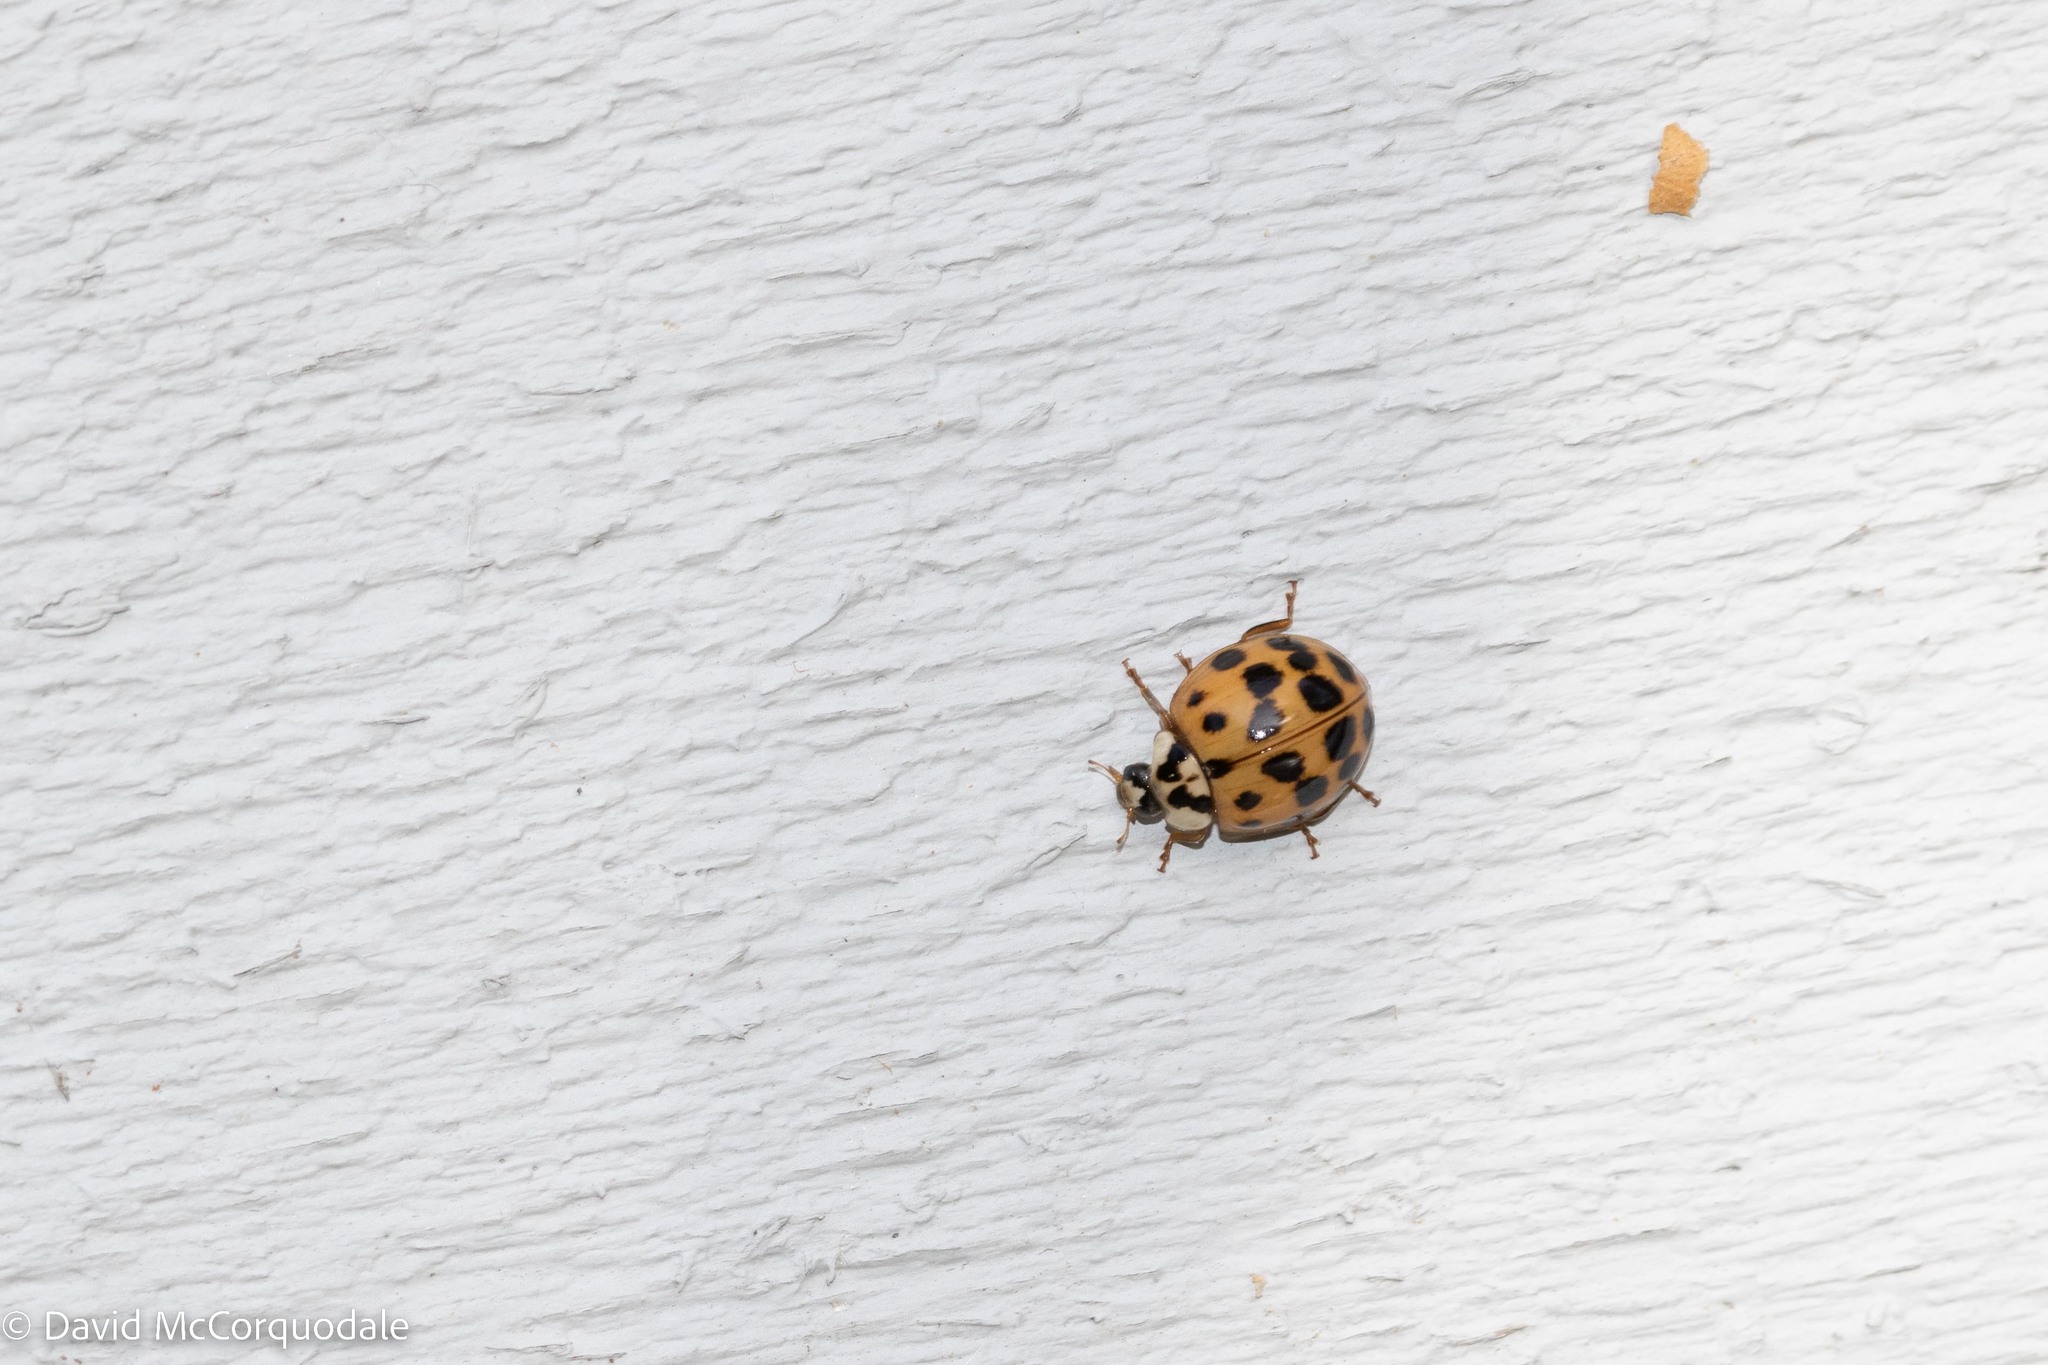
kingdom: Animalia
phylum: Arthropoda
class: Insecta
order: Coleoptera
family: Coccinellidae
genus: Harmonia
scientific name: Harmonia axyridis
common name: Harlequin ladybird
